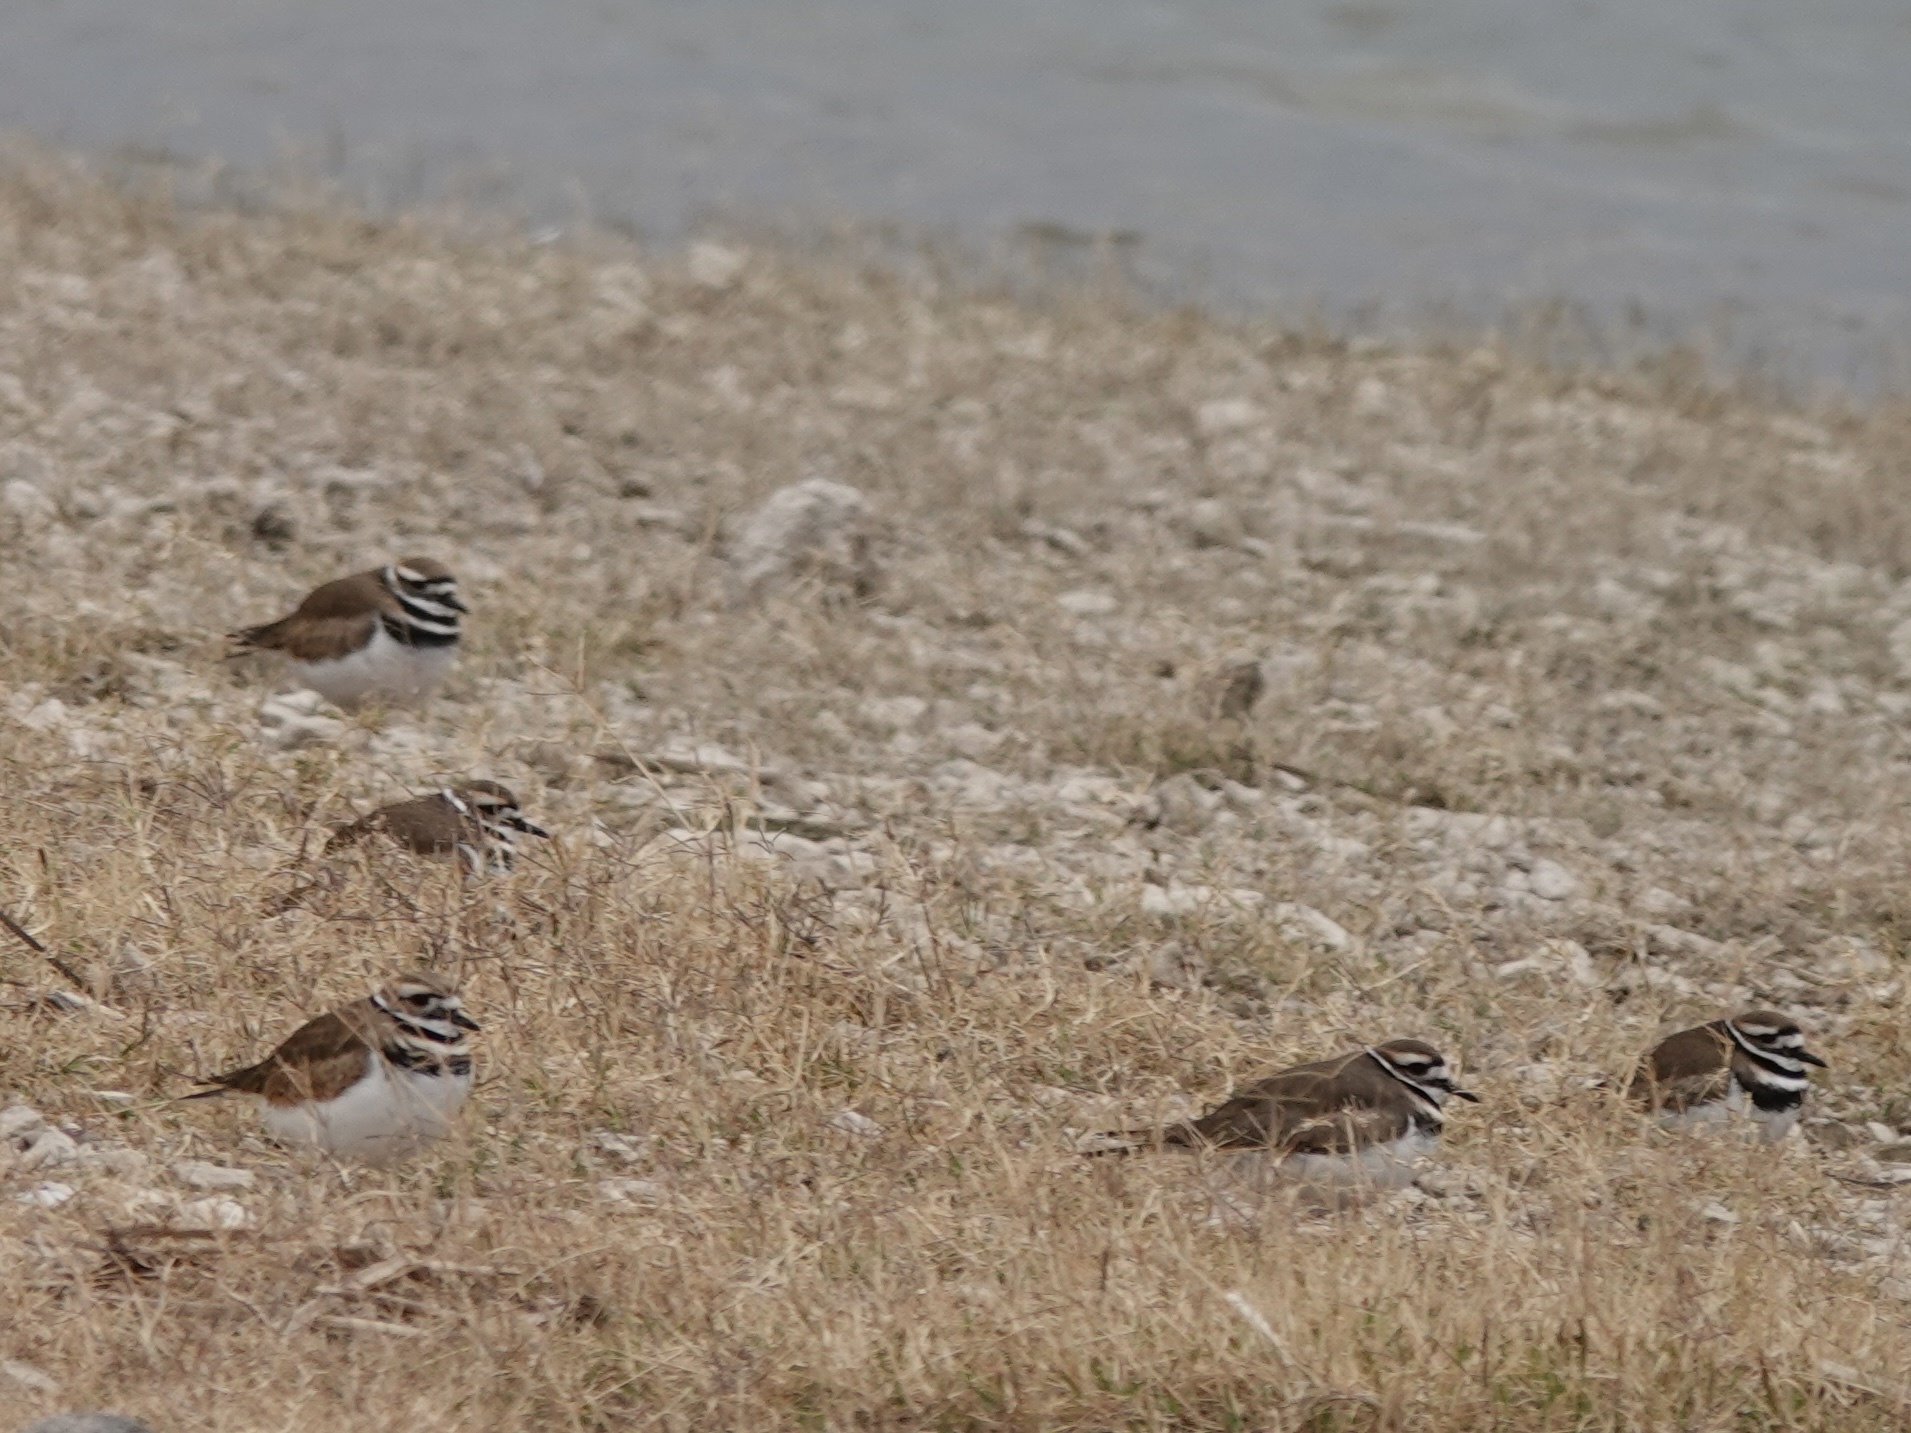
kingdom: Animalia
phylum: Chordata
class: Aves
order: Charadriiformes
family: Charadriidae
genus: Charadrius
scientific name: Charadrius vociferus
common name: Killdeer
